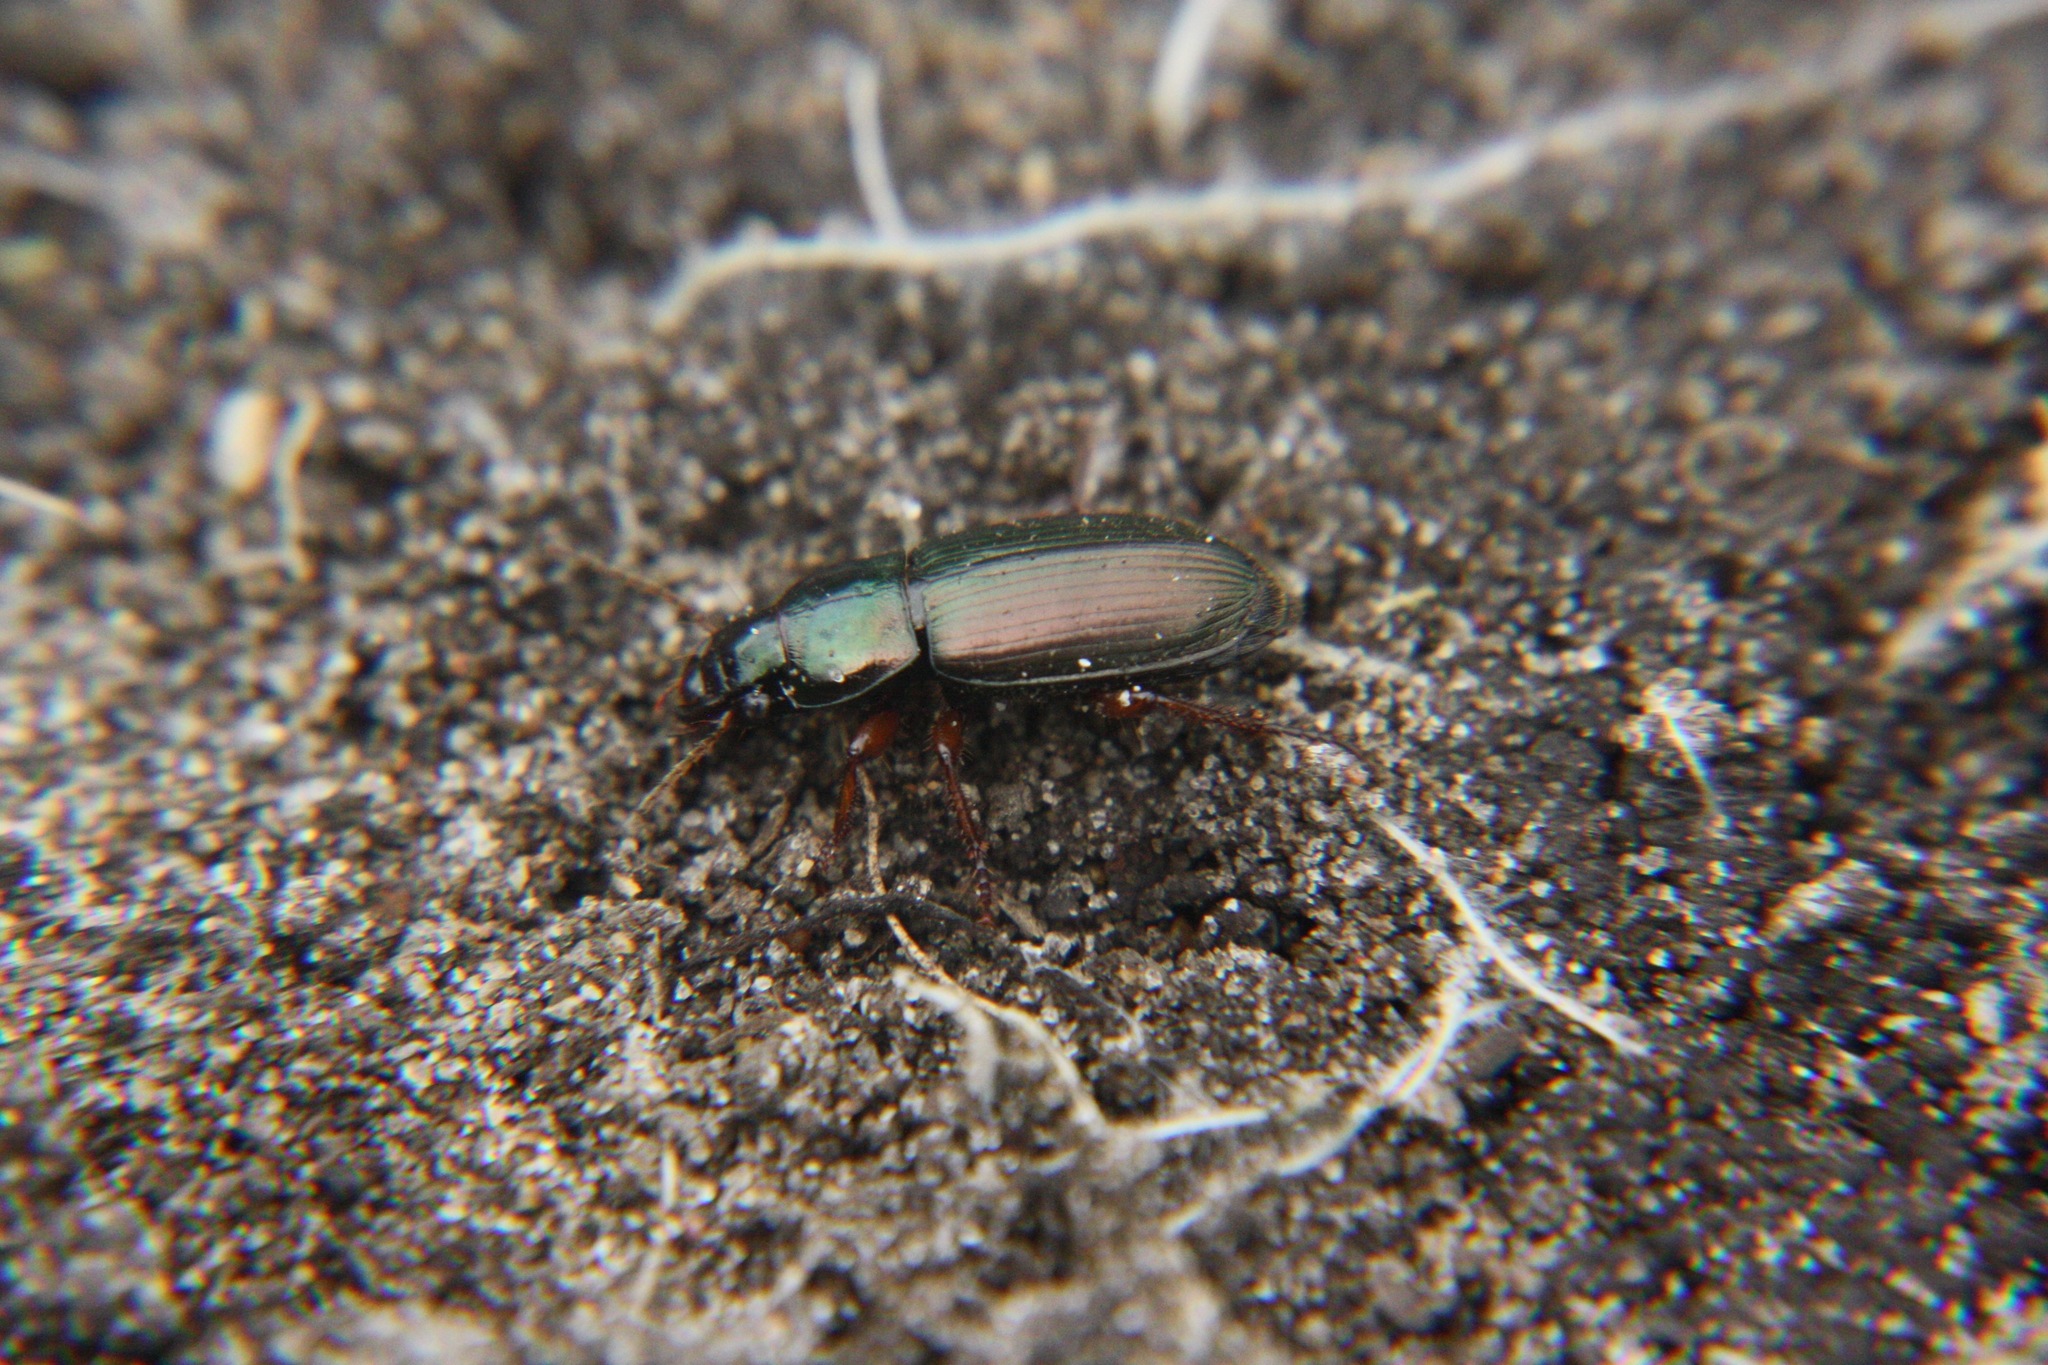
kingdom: Animalia
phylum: Arthropoda
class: Insecta
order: Coleoptera
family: Carabidae
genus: Harpalus
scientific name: Harpalus affinis
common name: Polychrome harp ground beetle
